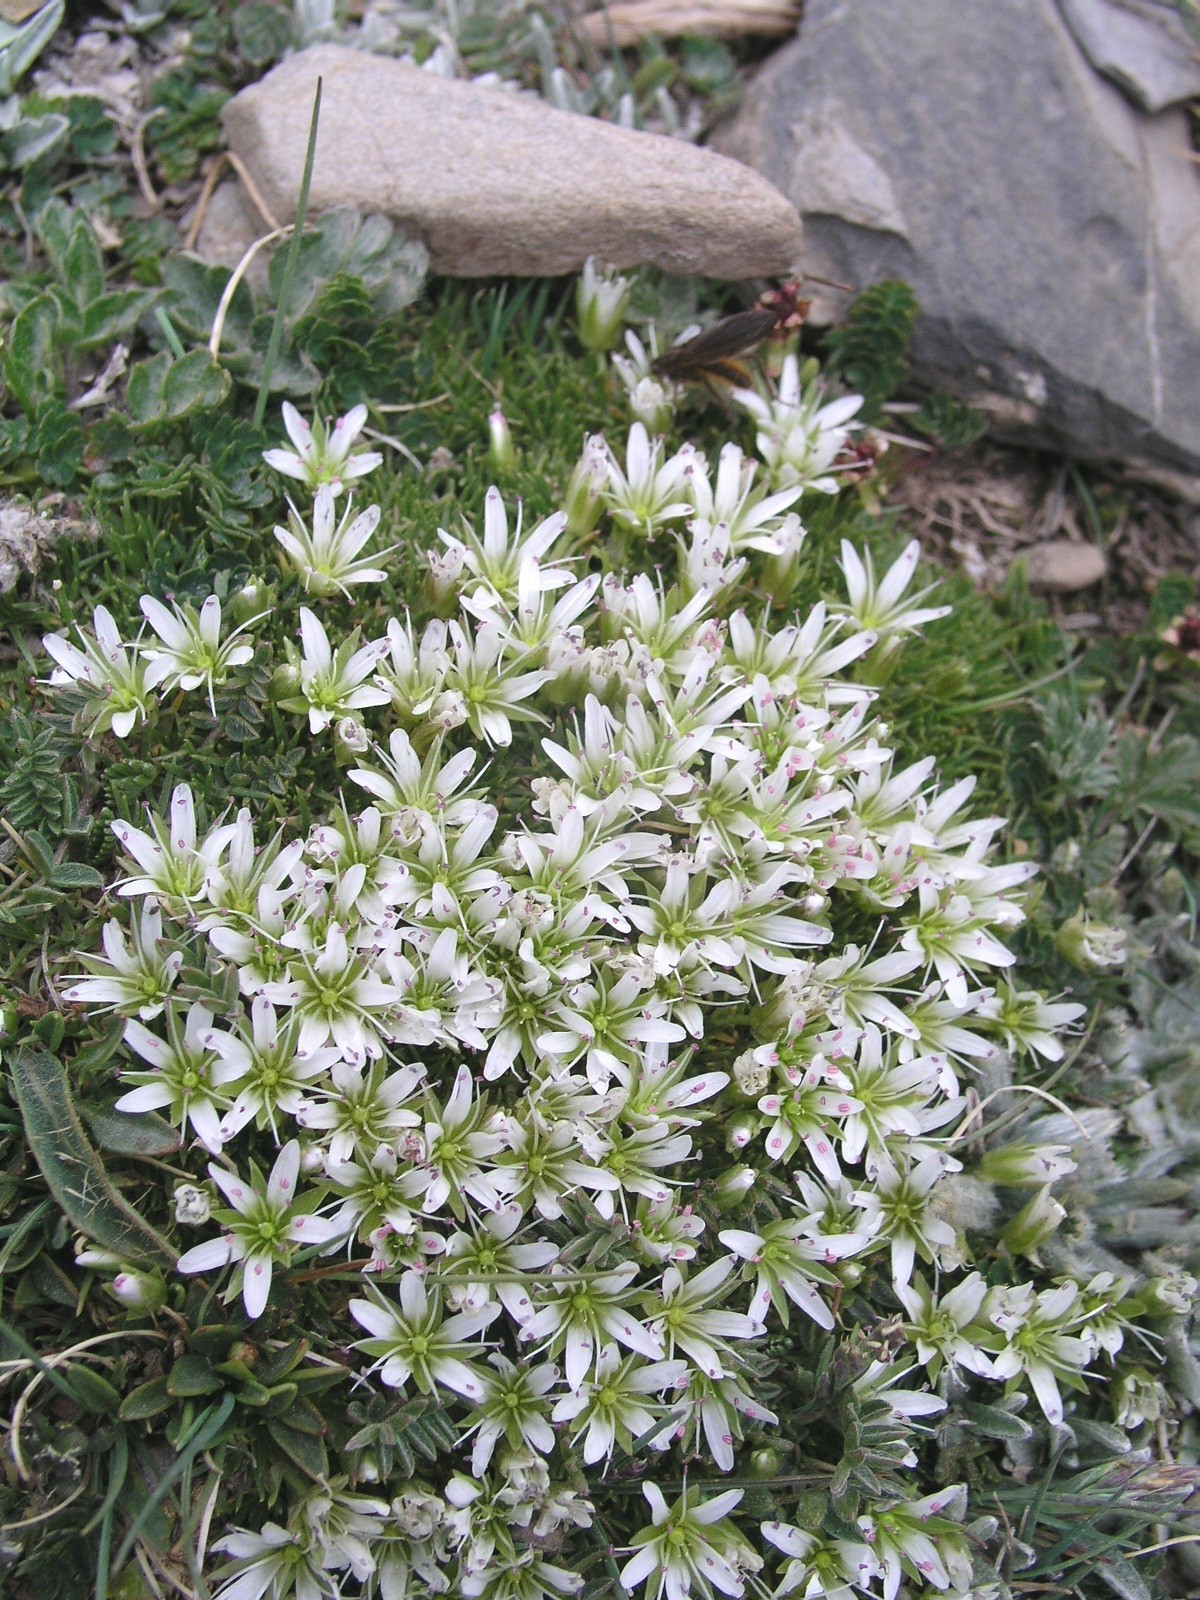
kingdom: Plantae
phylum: Tracheophyta
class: Magnoliopsida
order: Caryophyllales
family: Caryophyllaceae
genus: Eremogone
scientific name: Eremogone bryophylla
